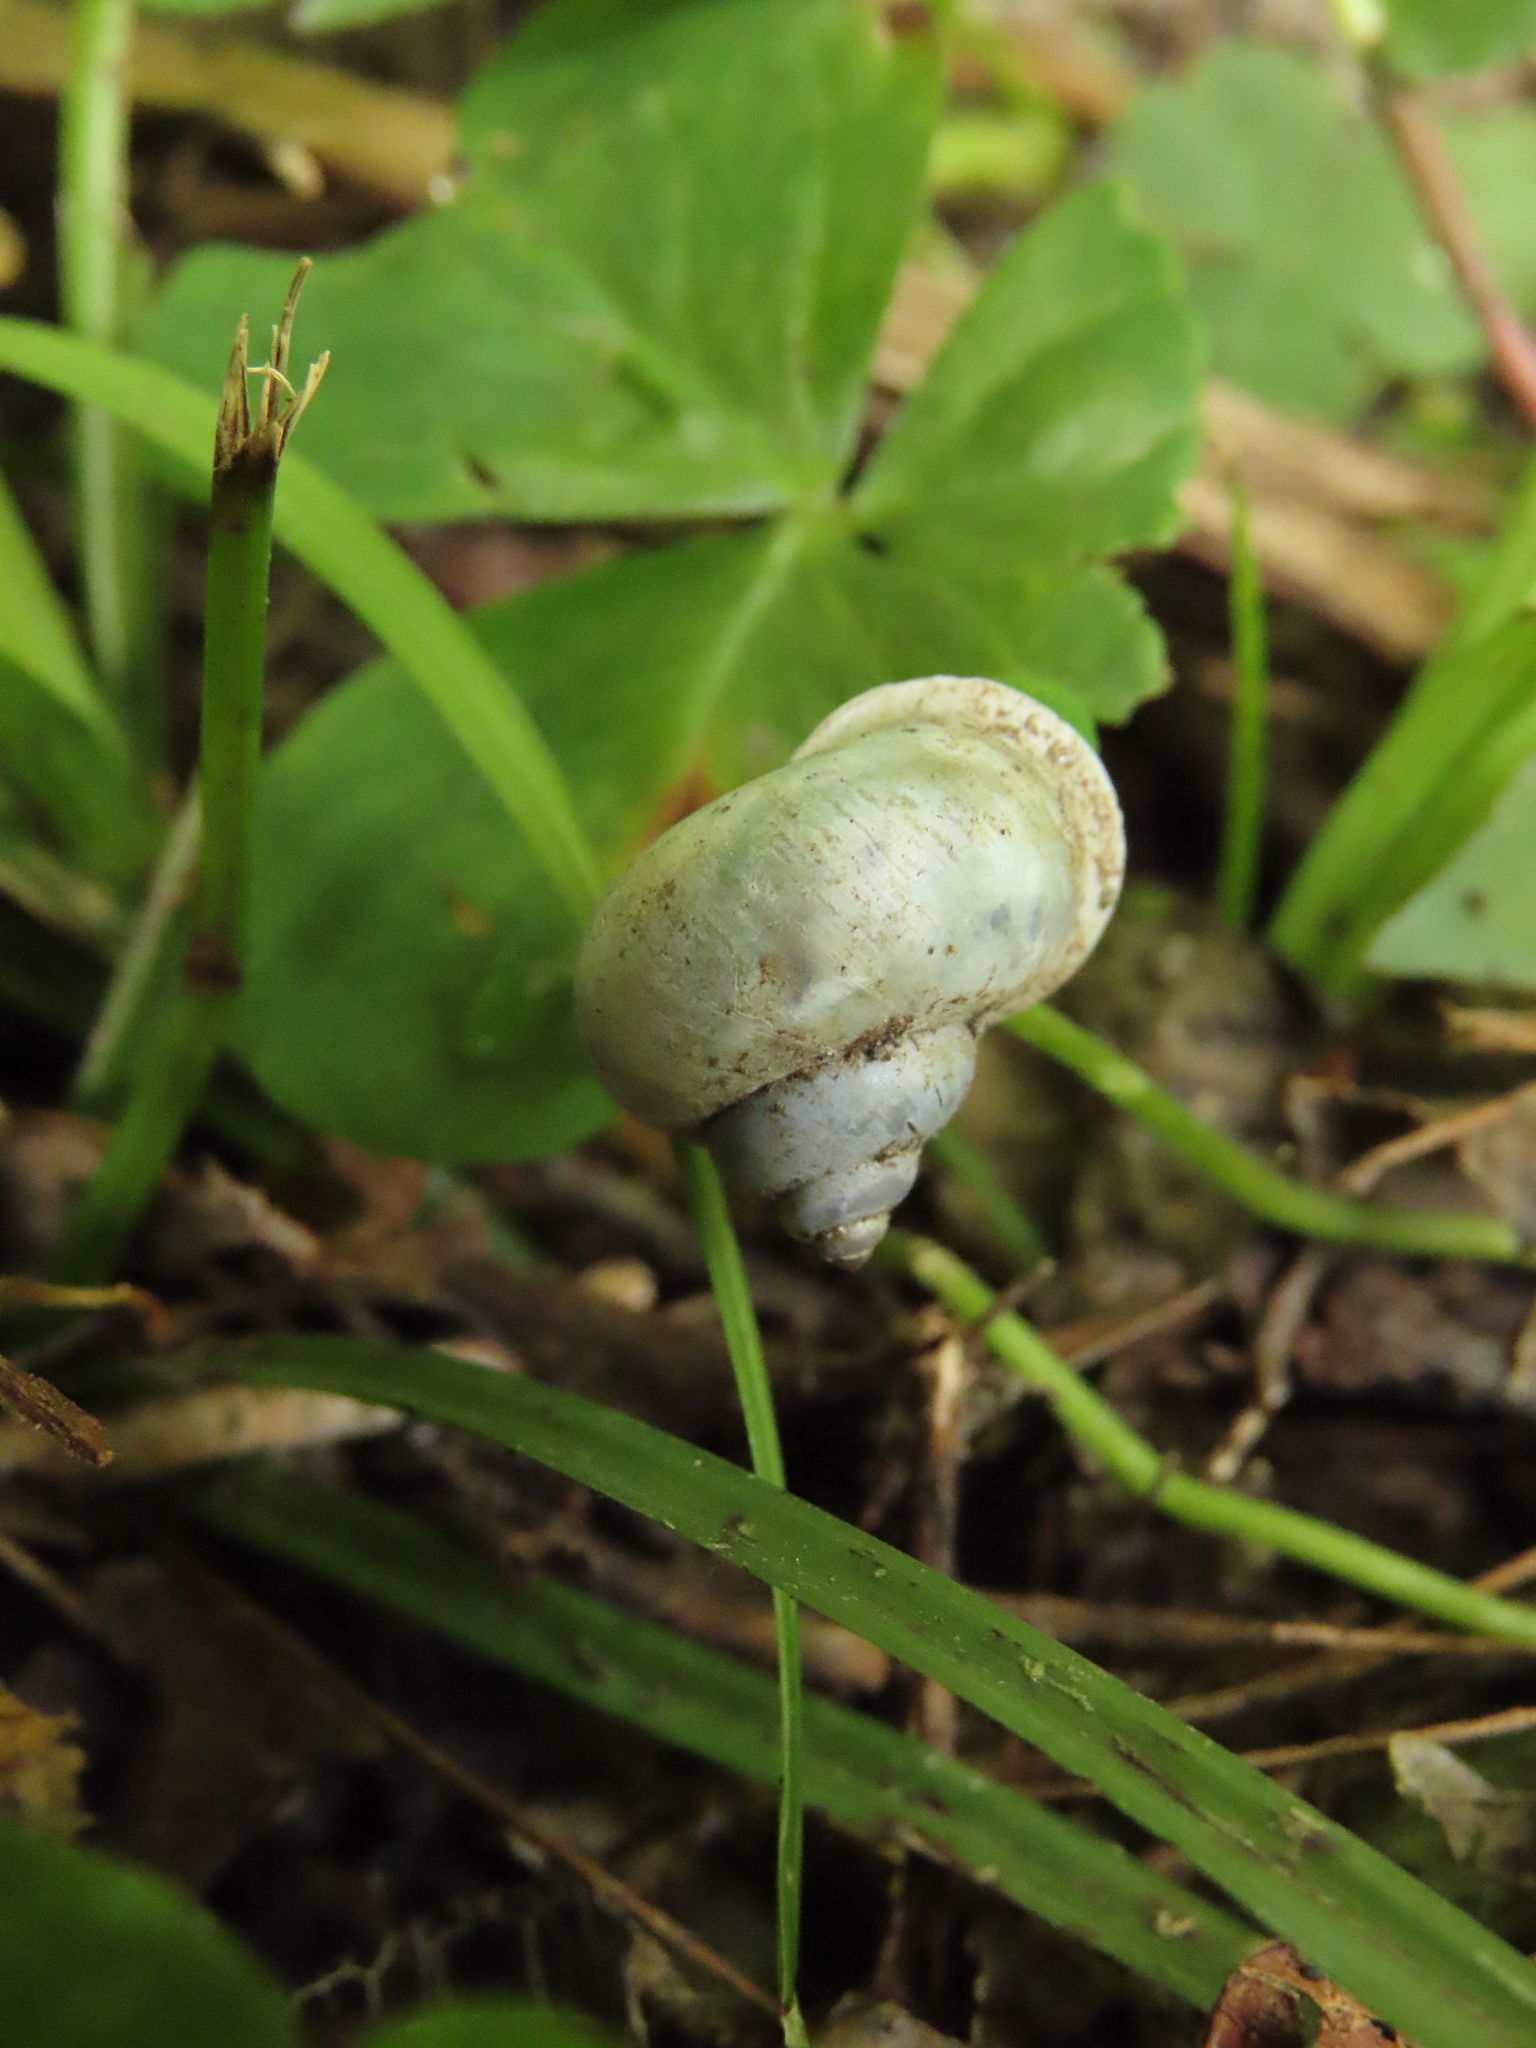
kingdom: Animalia
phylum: Mollusca
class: Gastropoda
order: Architaenioglossa
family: Cyclophoridae
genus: Leptopoma
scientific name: Leptopoma nitidum
